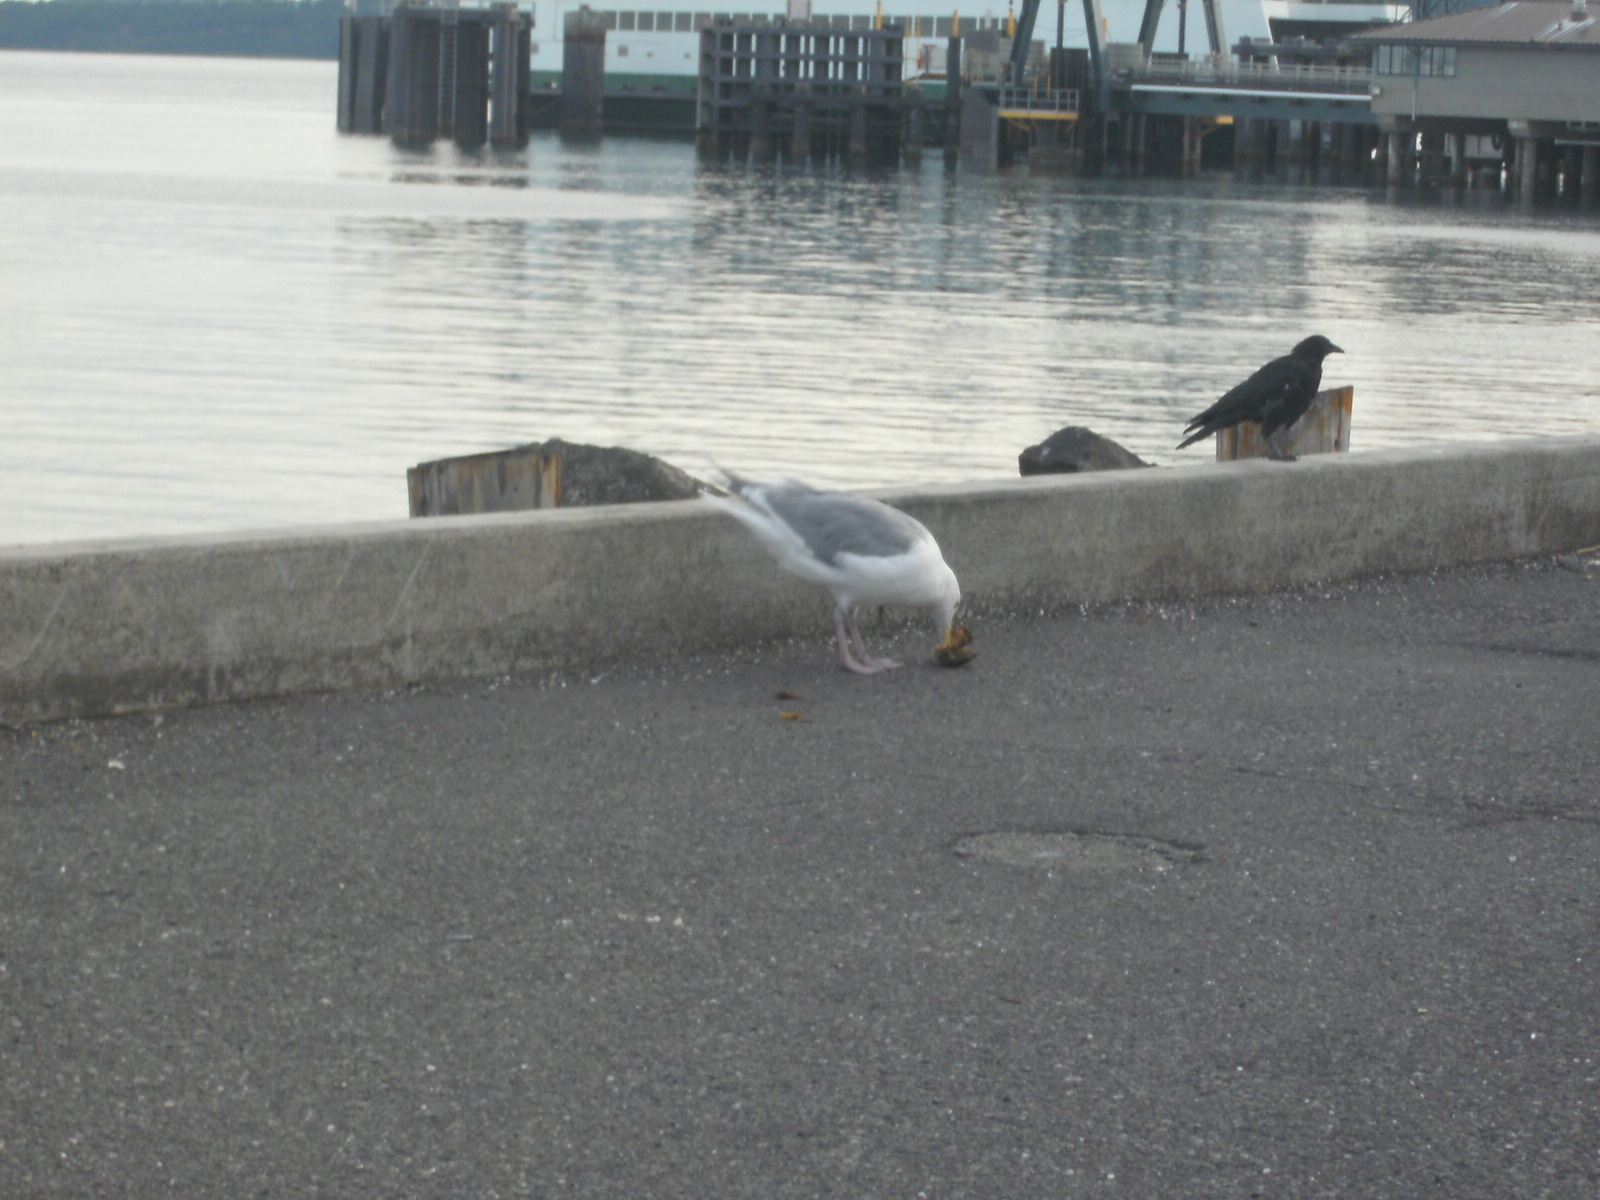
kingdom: Animalia
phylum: Chordata
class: Aves
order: Charadriiformes
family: Laridae
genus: Larus
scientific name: Larus
